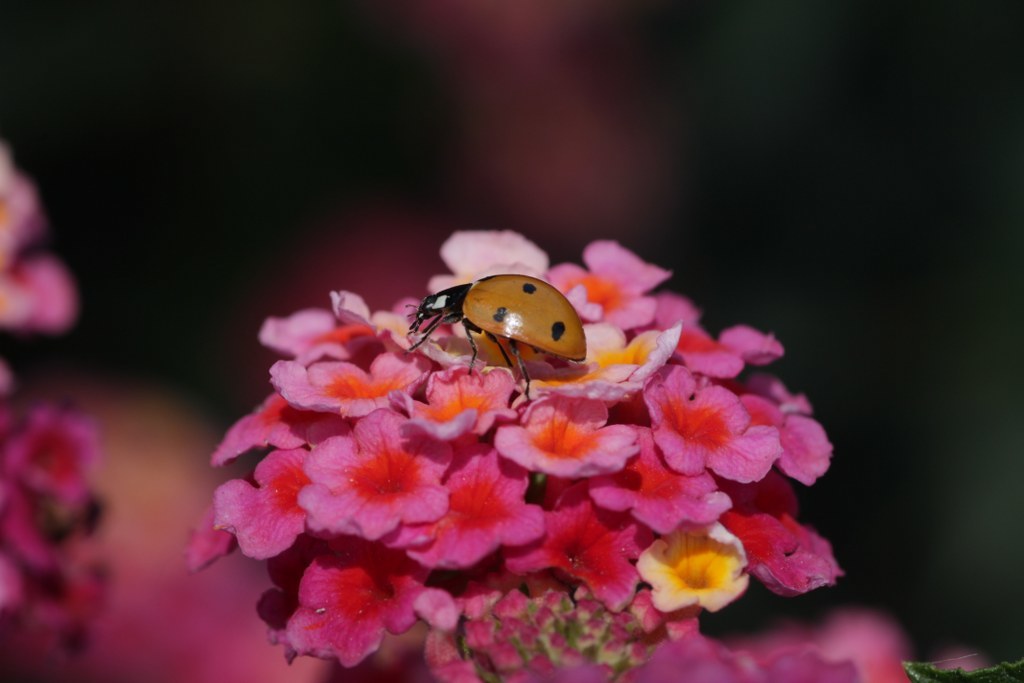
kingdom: Animalia
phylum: Arthropoda
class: Insecta
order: Coleoptera
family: Coccinellidae
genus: Coccinella
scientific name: Coccinella septempunctata
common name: Sevenspotted lady beetle
